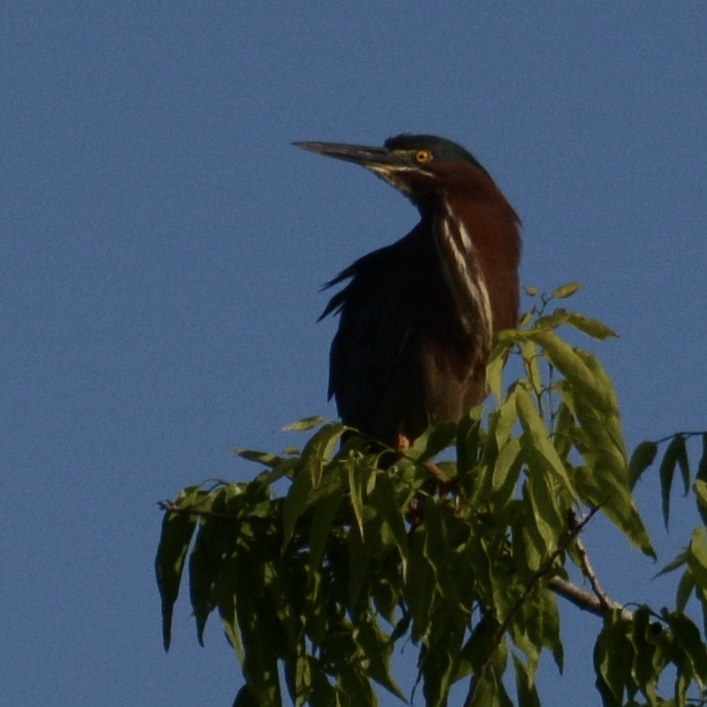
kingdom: Animalia
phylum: Chordata
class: Aves
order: Pelecaniformes
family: Ardeidae
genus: Butorides
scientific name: Butorides virescens
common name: Green heron
